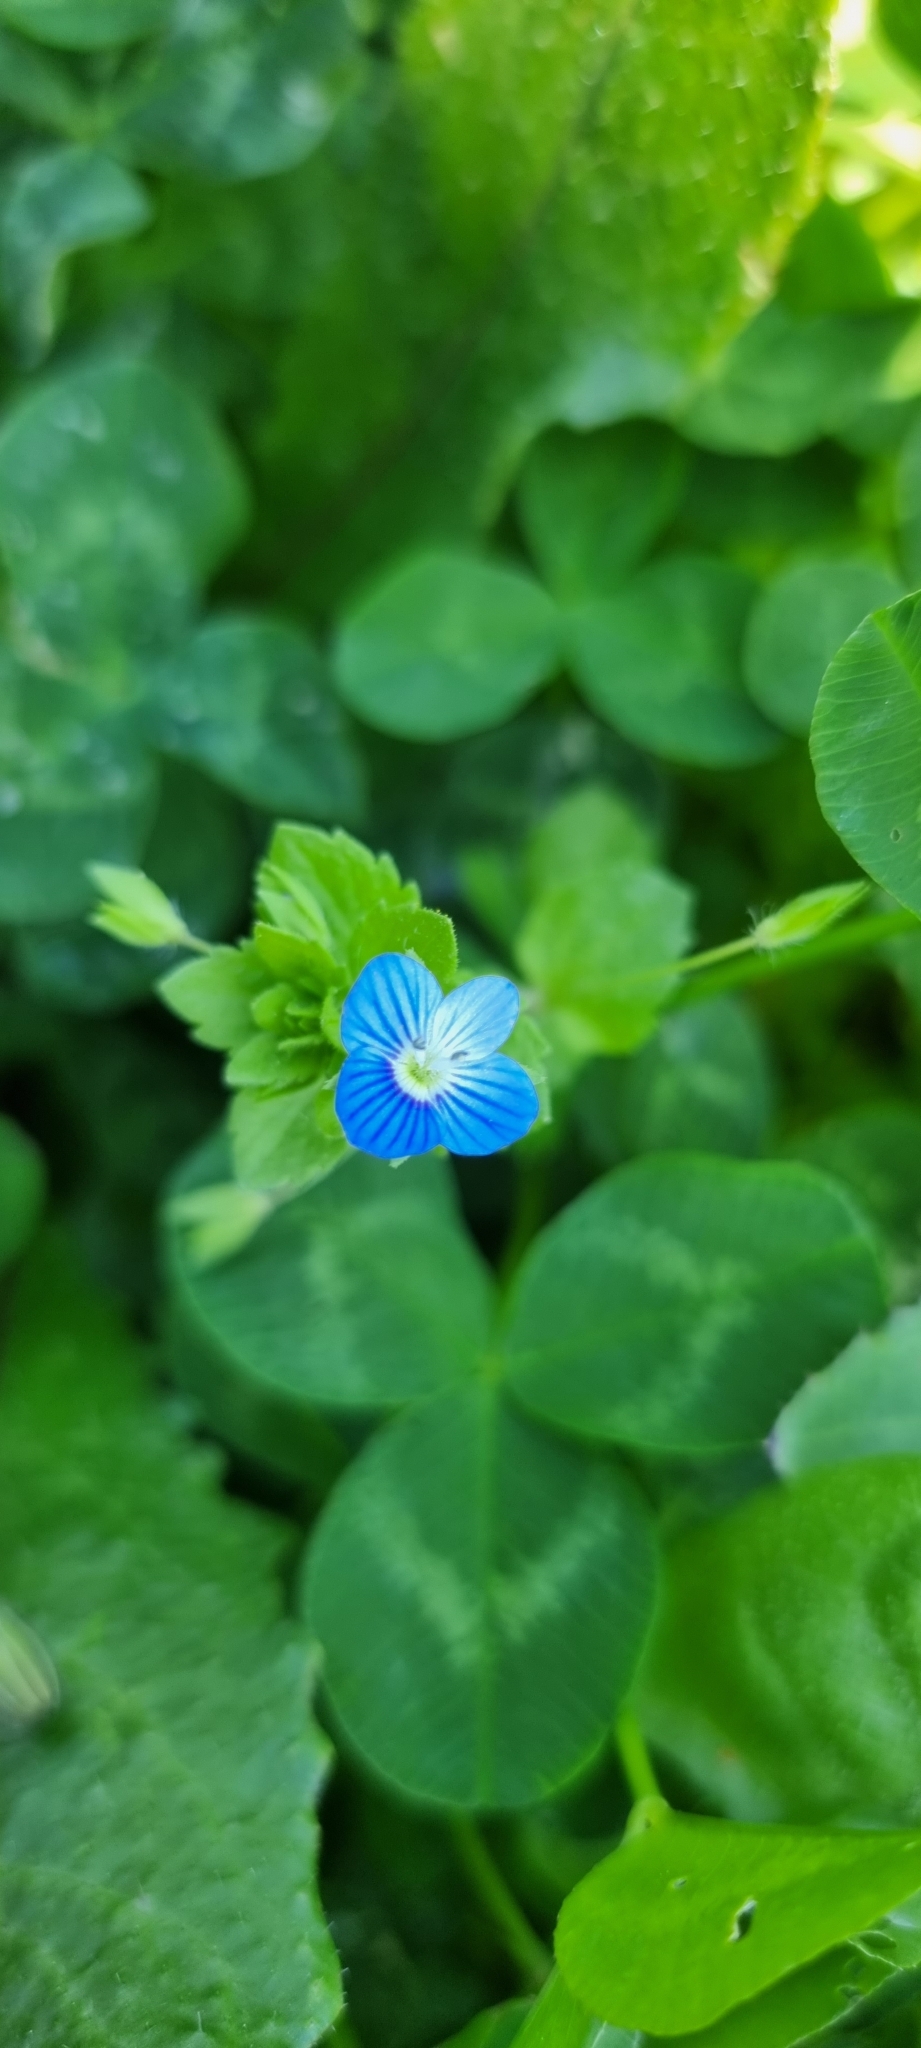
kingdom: Plantae
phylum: Tracheophyta
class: Magnoliopsida
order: Lamiales
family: Plantaginaceae
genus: Veronica
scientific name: Veronica persica
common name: Common field-speedwell
